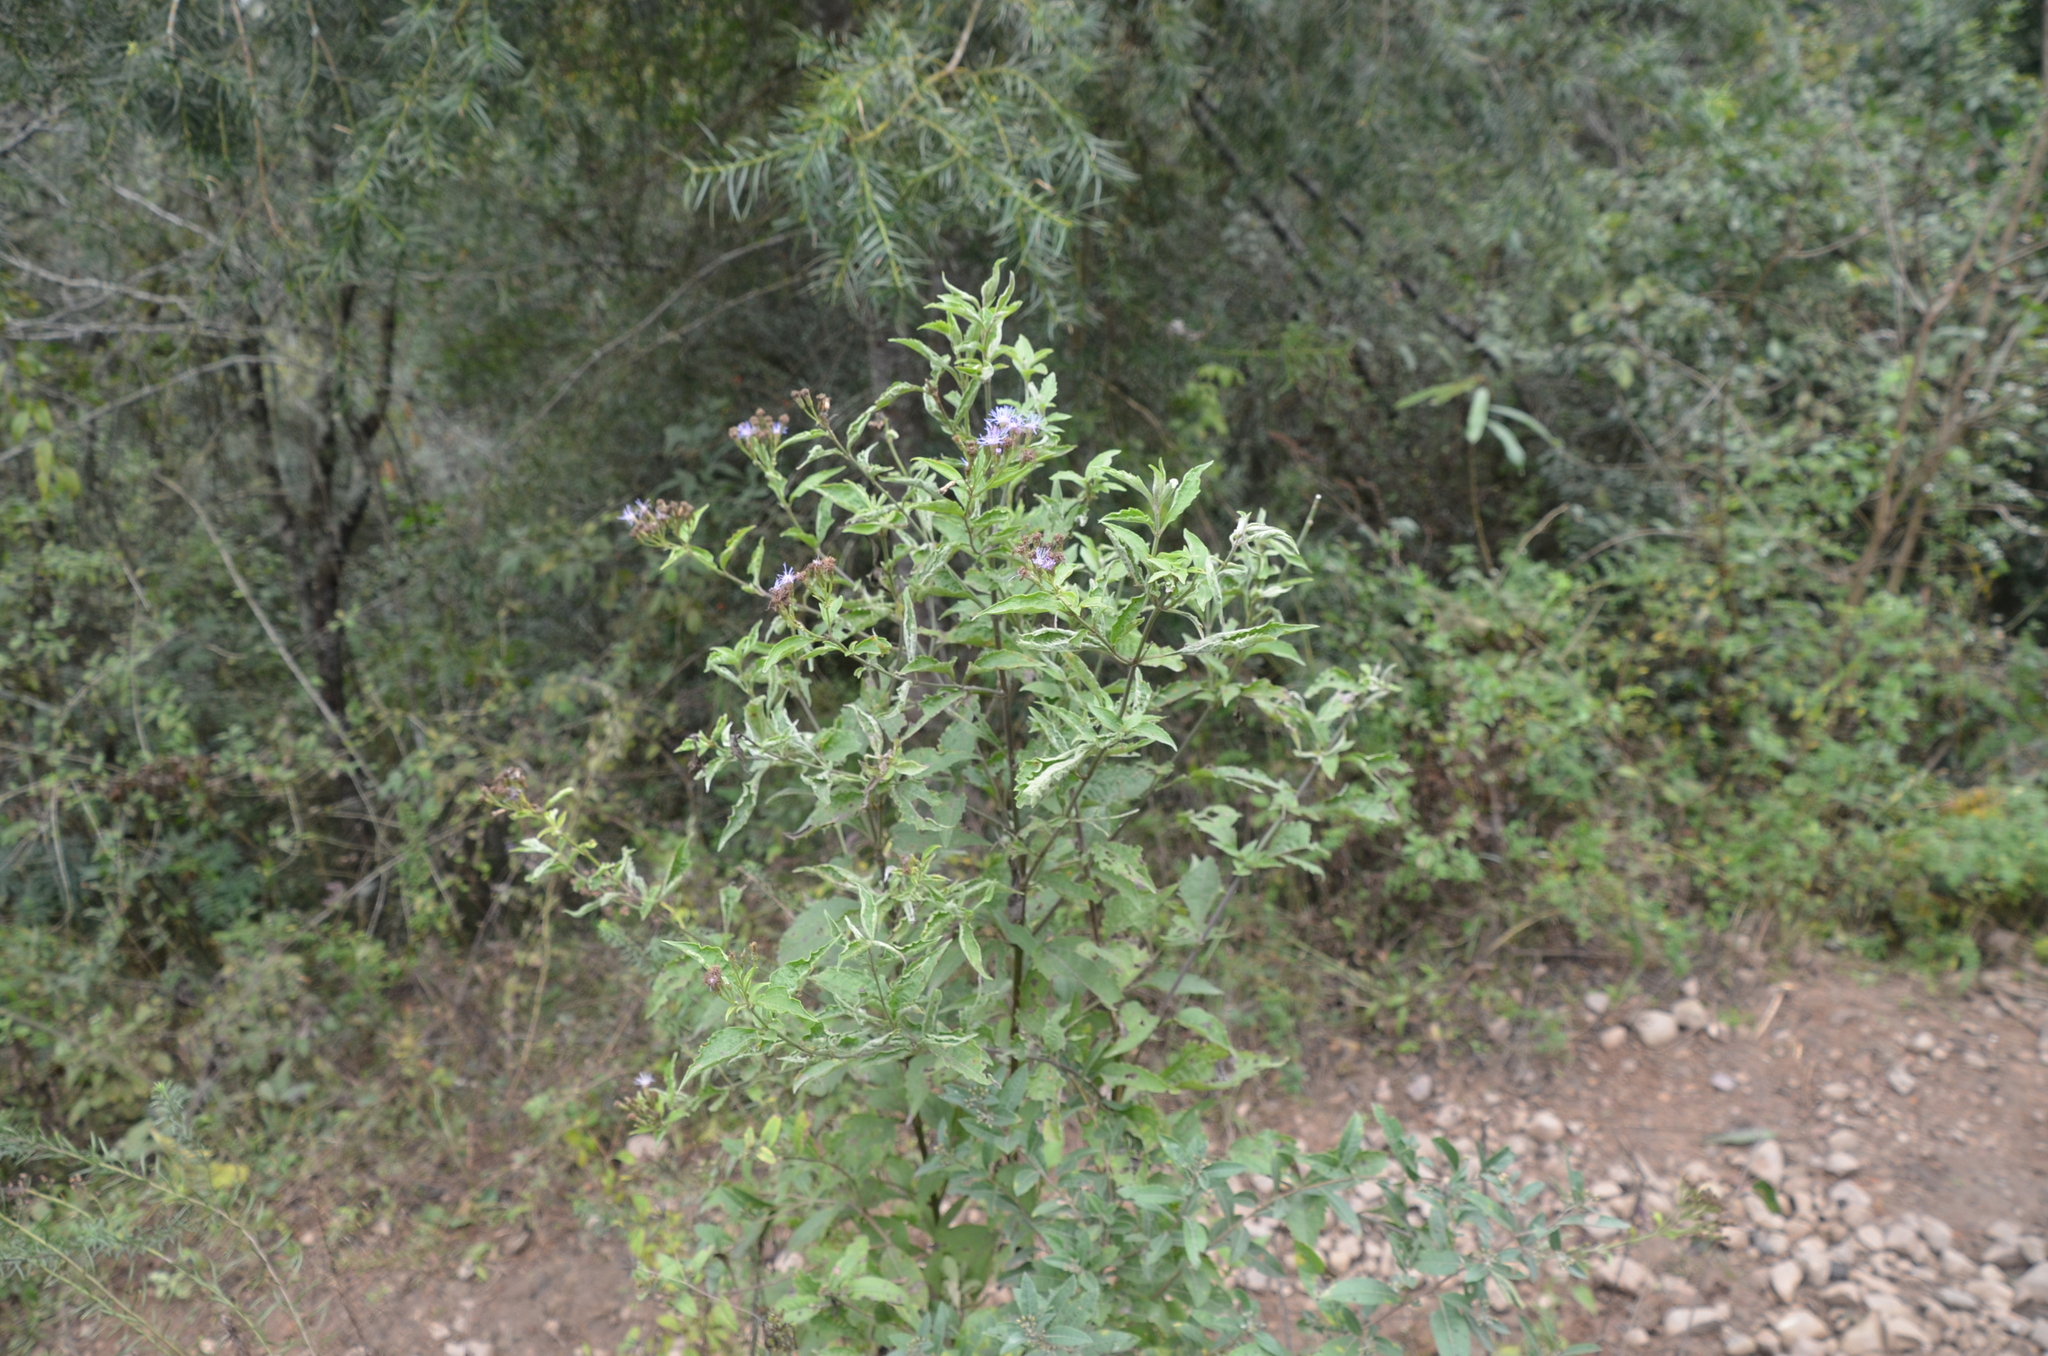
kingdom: Plantae
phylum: Tracheophyta
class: Magnoliopsida
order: Asterales
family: Asteraceae
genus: Chromolaena
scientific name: Chromolaena hookeriana
